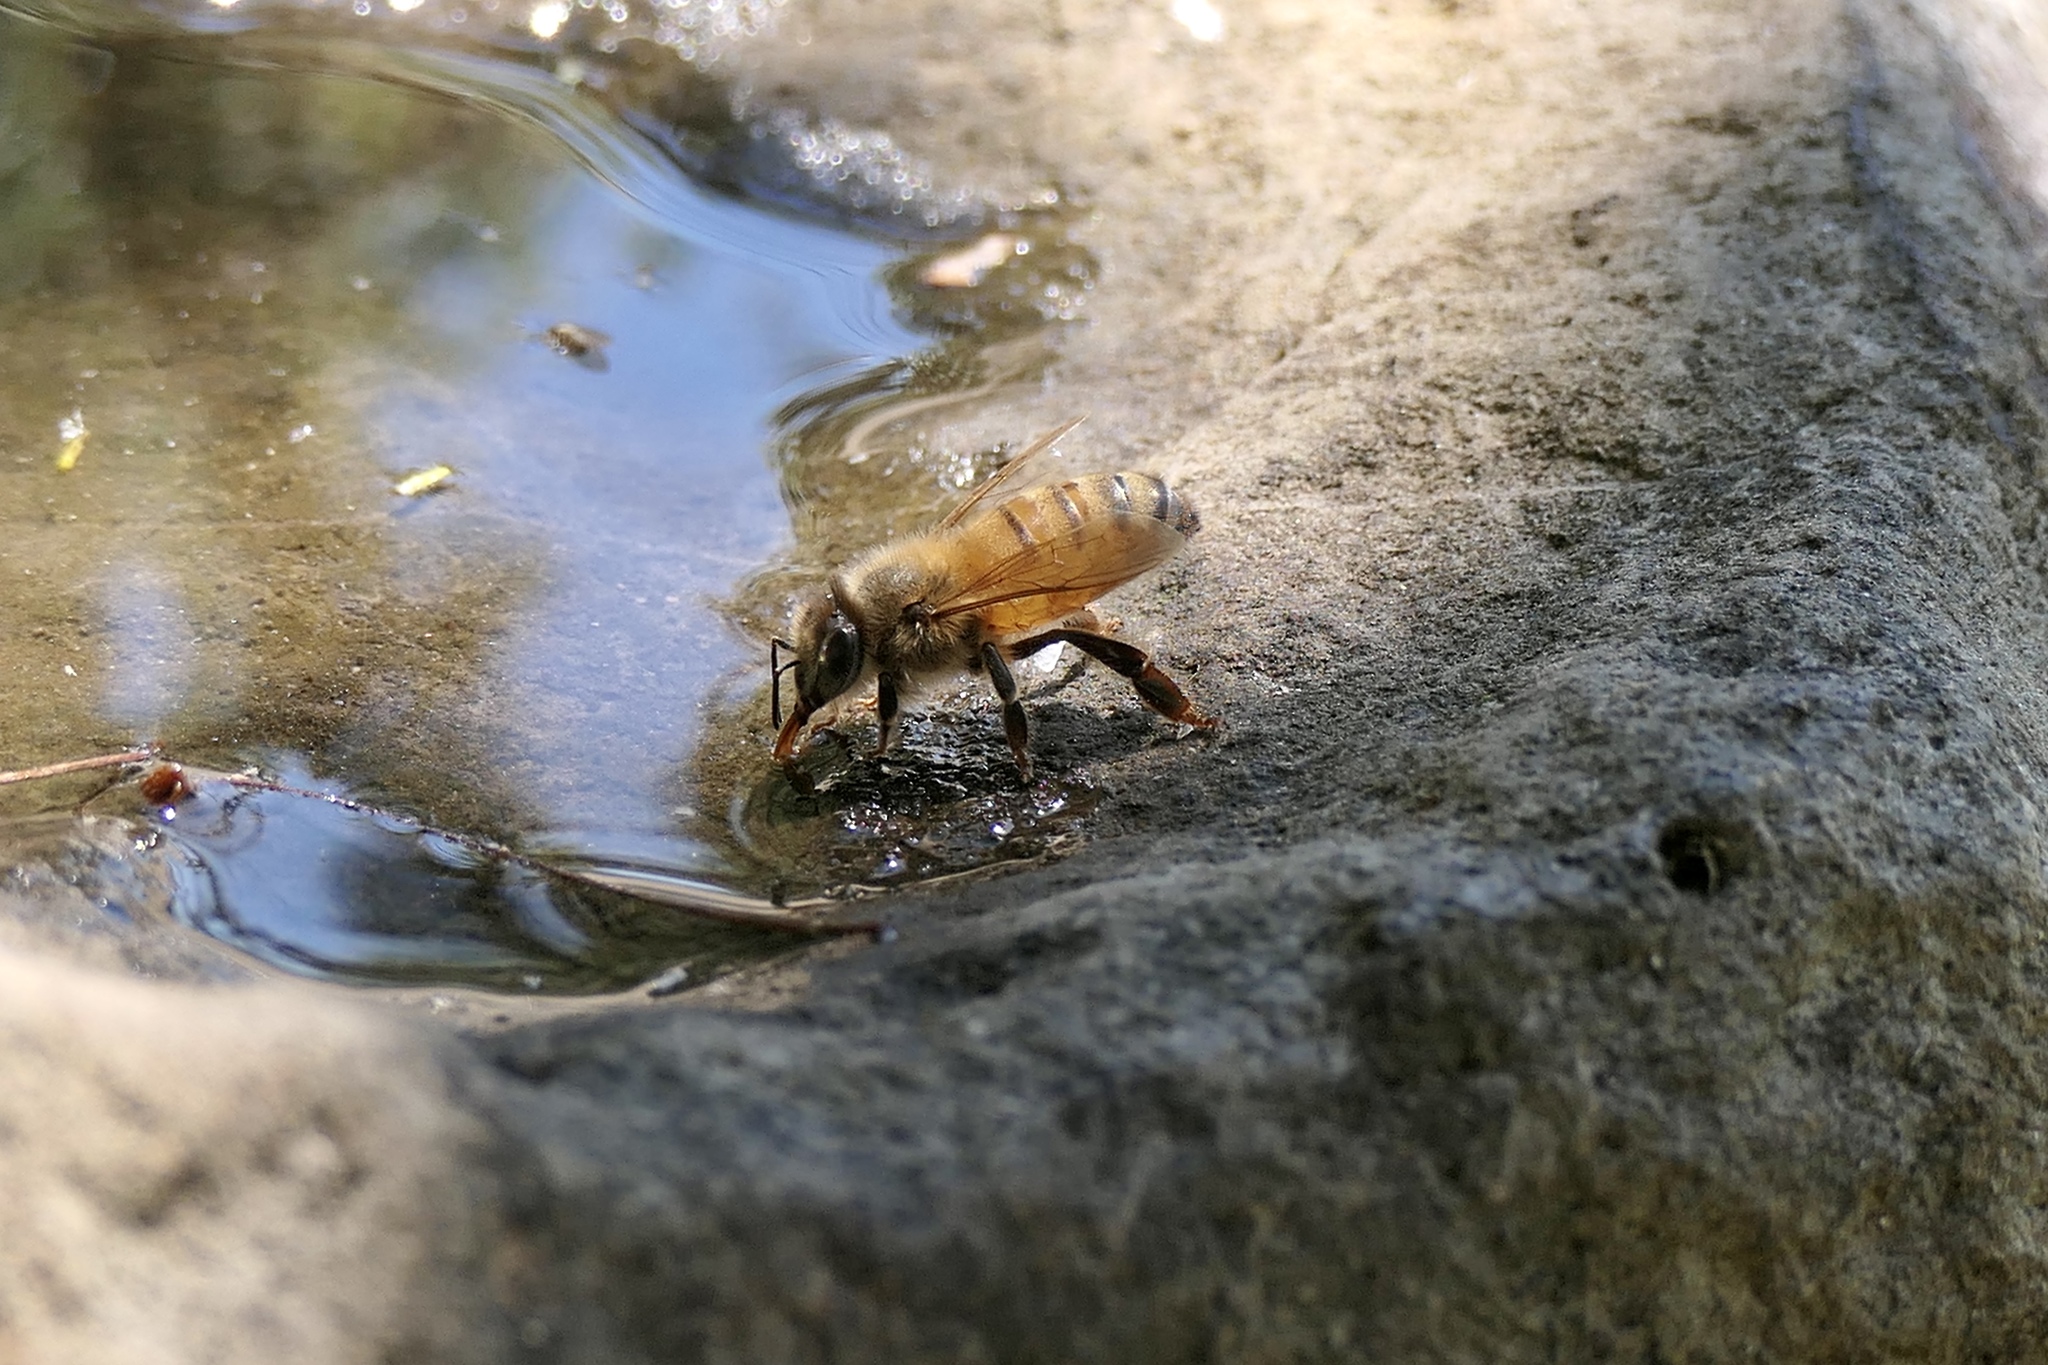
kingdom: Animalia
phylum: Arthropoda
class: Insecta
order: Hymenoptera
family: Apidae
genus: Apis
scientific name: Apis mellifera
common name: Honey bee
